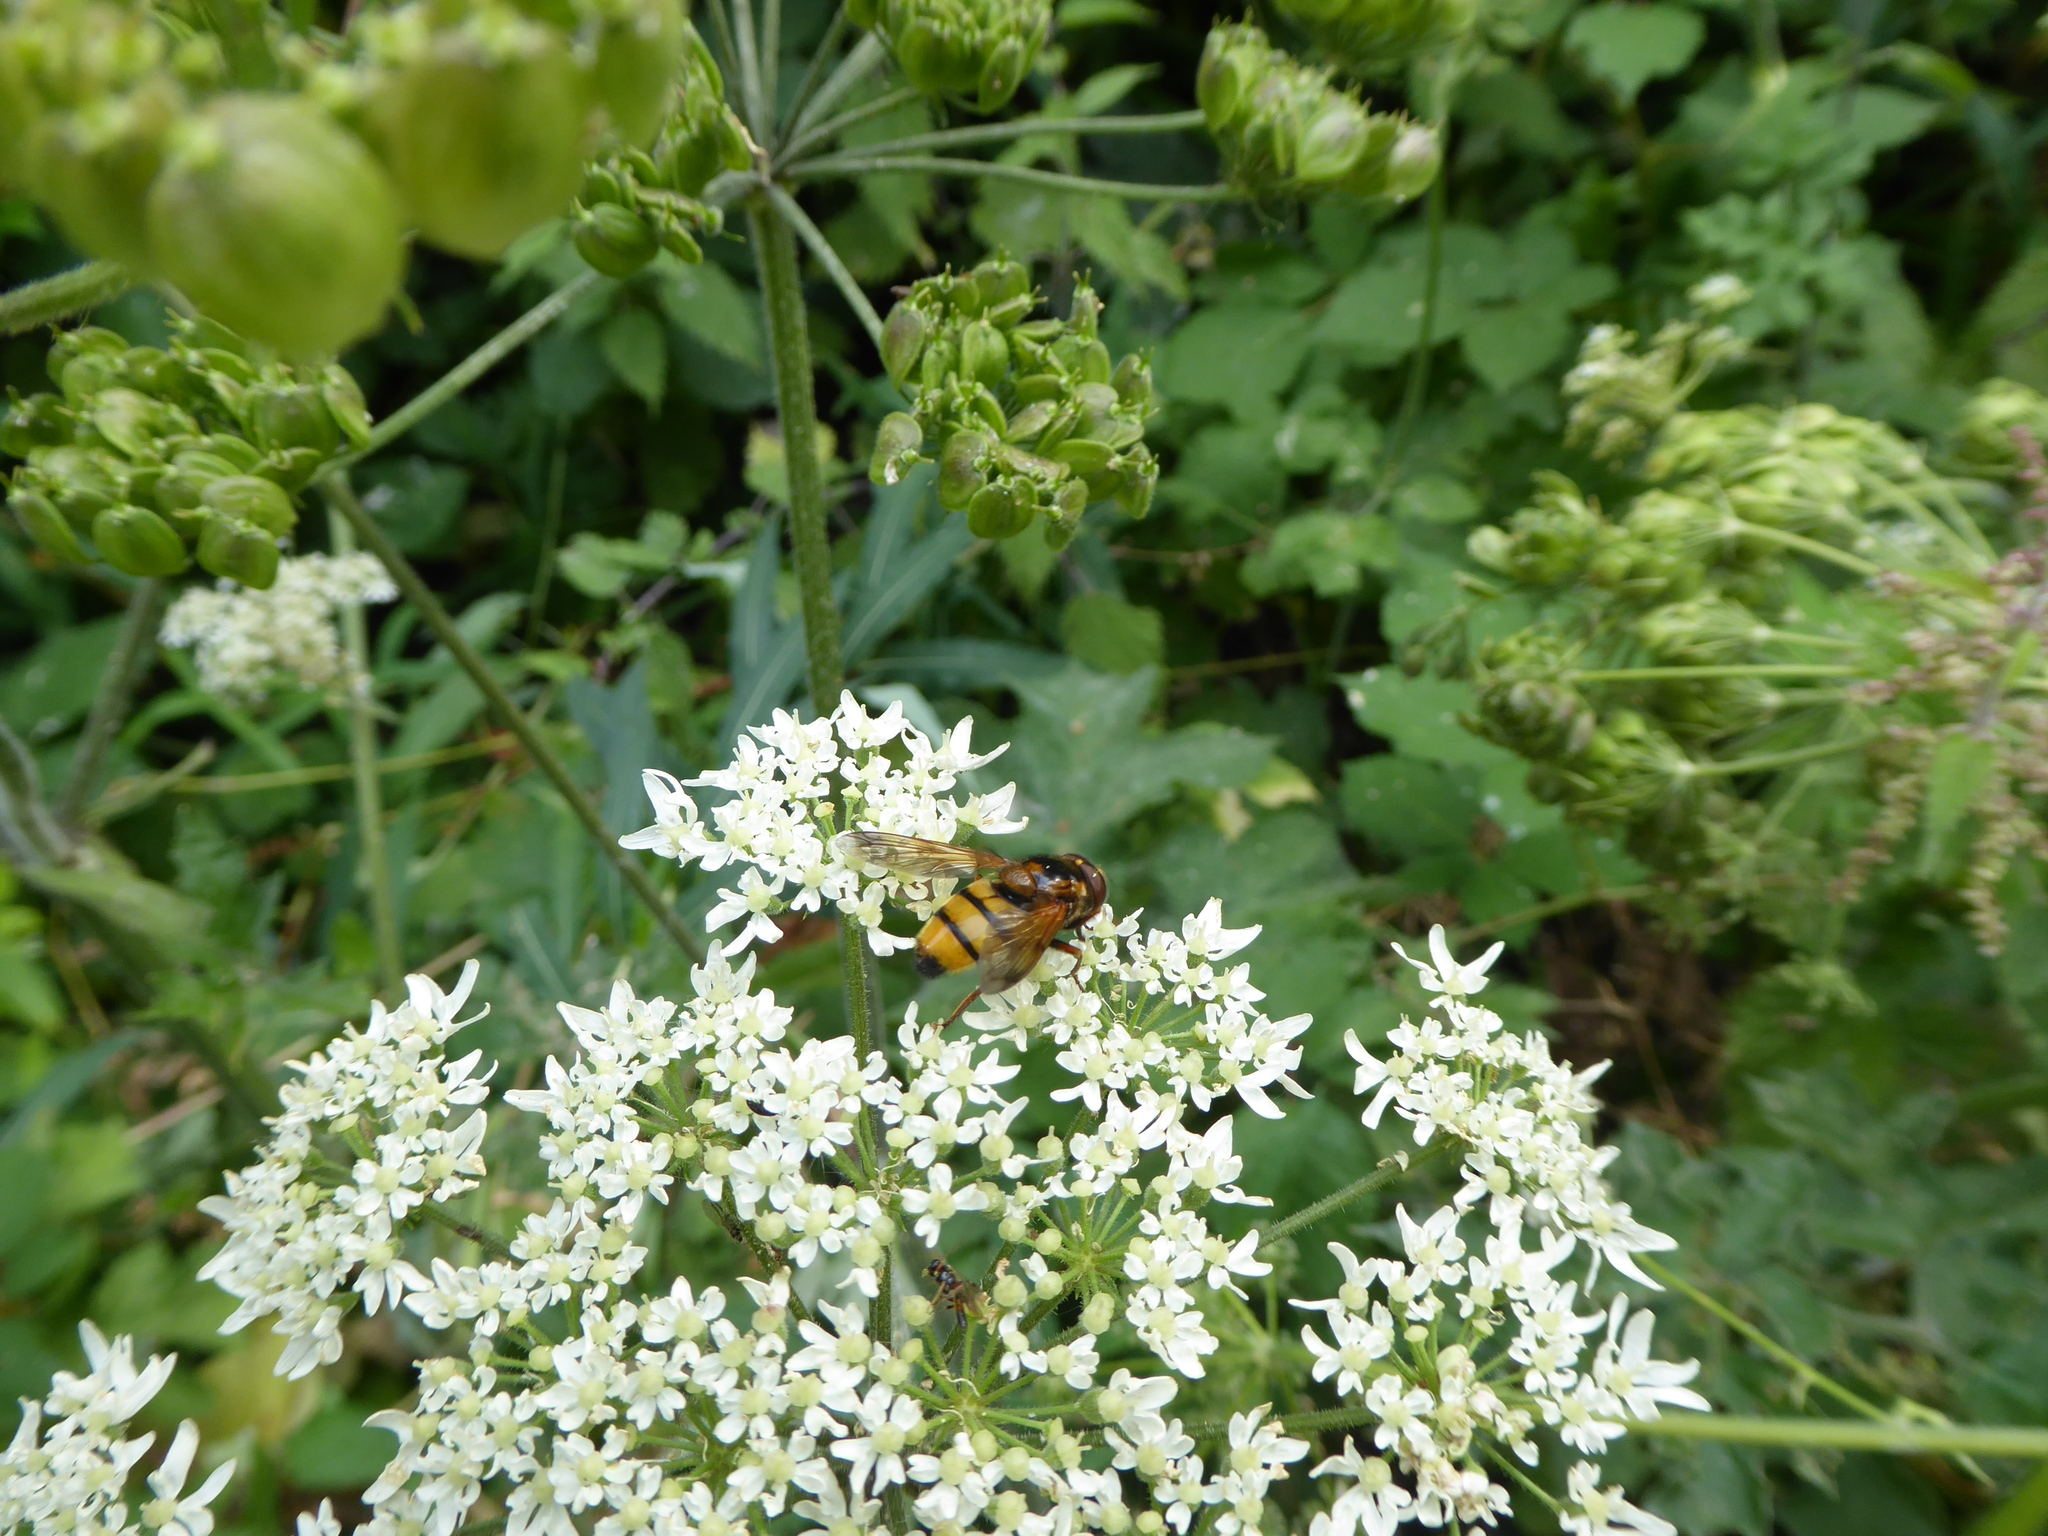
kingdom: Animalia
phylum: Arthropoda
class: Insecta
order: Diptera
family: Syrphidae
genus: Volucella
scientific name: Volucella inanis
